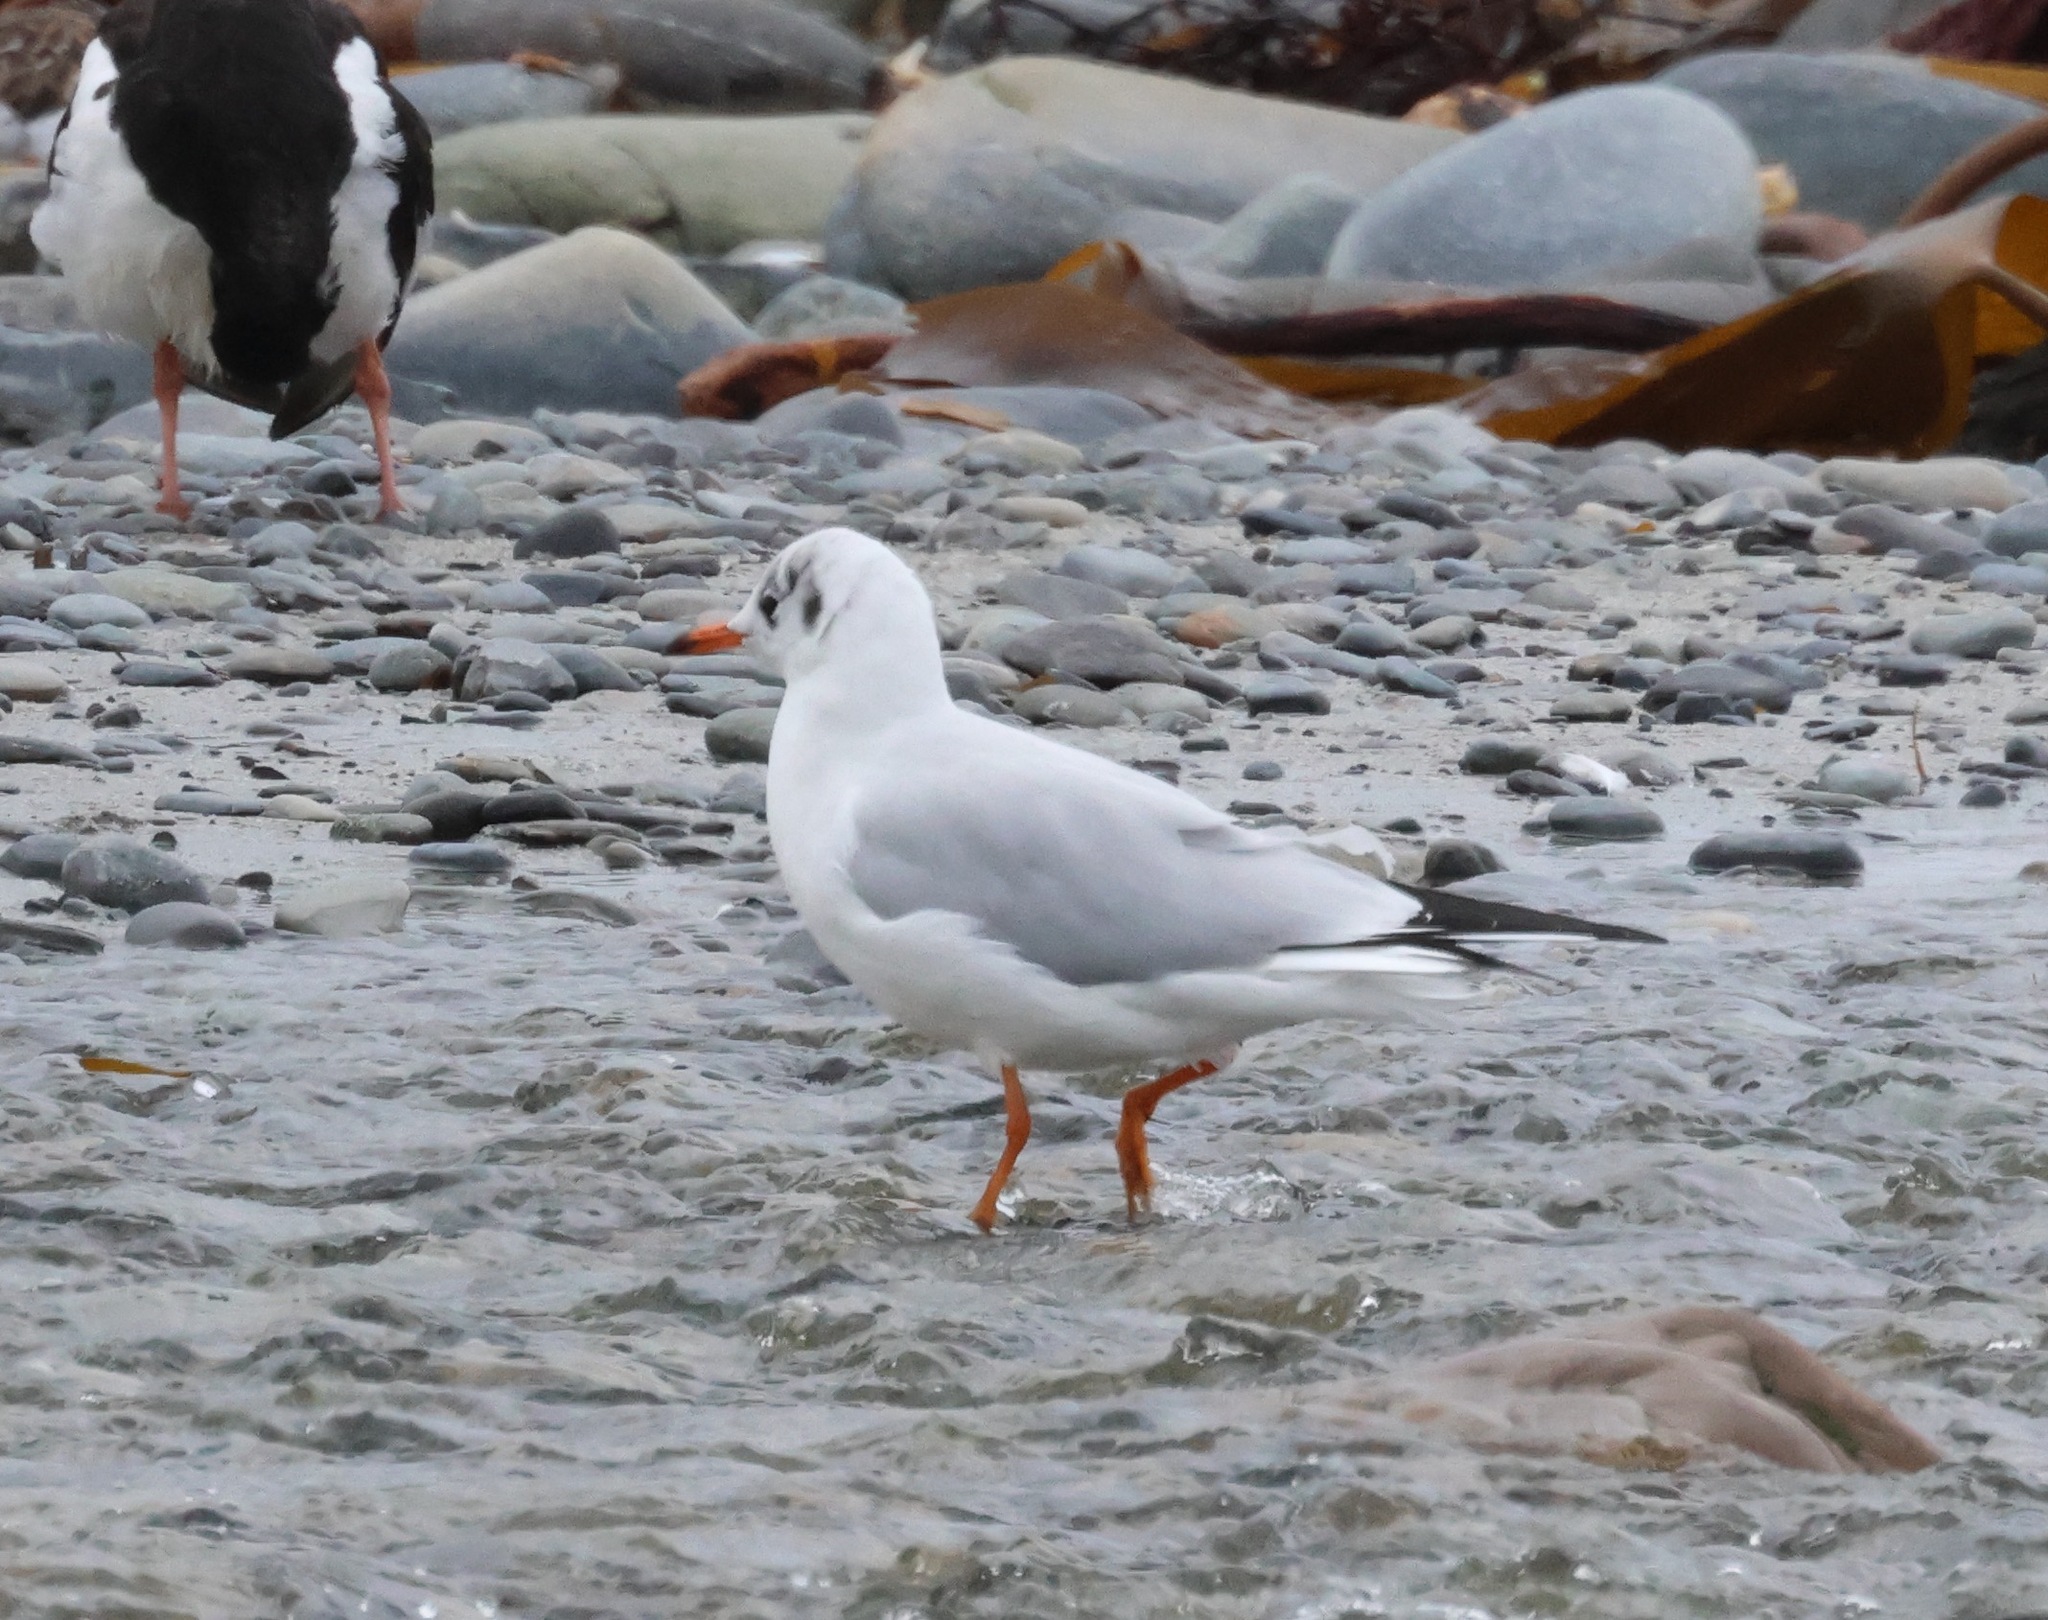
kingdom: Animalia
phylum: Chordata
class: Aves
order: Charadriiformes
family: Laridae
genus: Chroicocephalus
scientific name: Chroicocephalus ridibundus
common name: Black-headed gull
